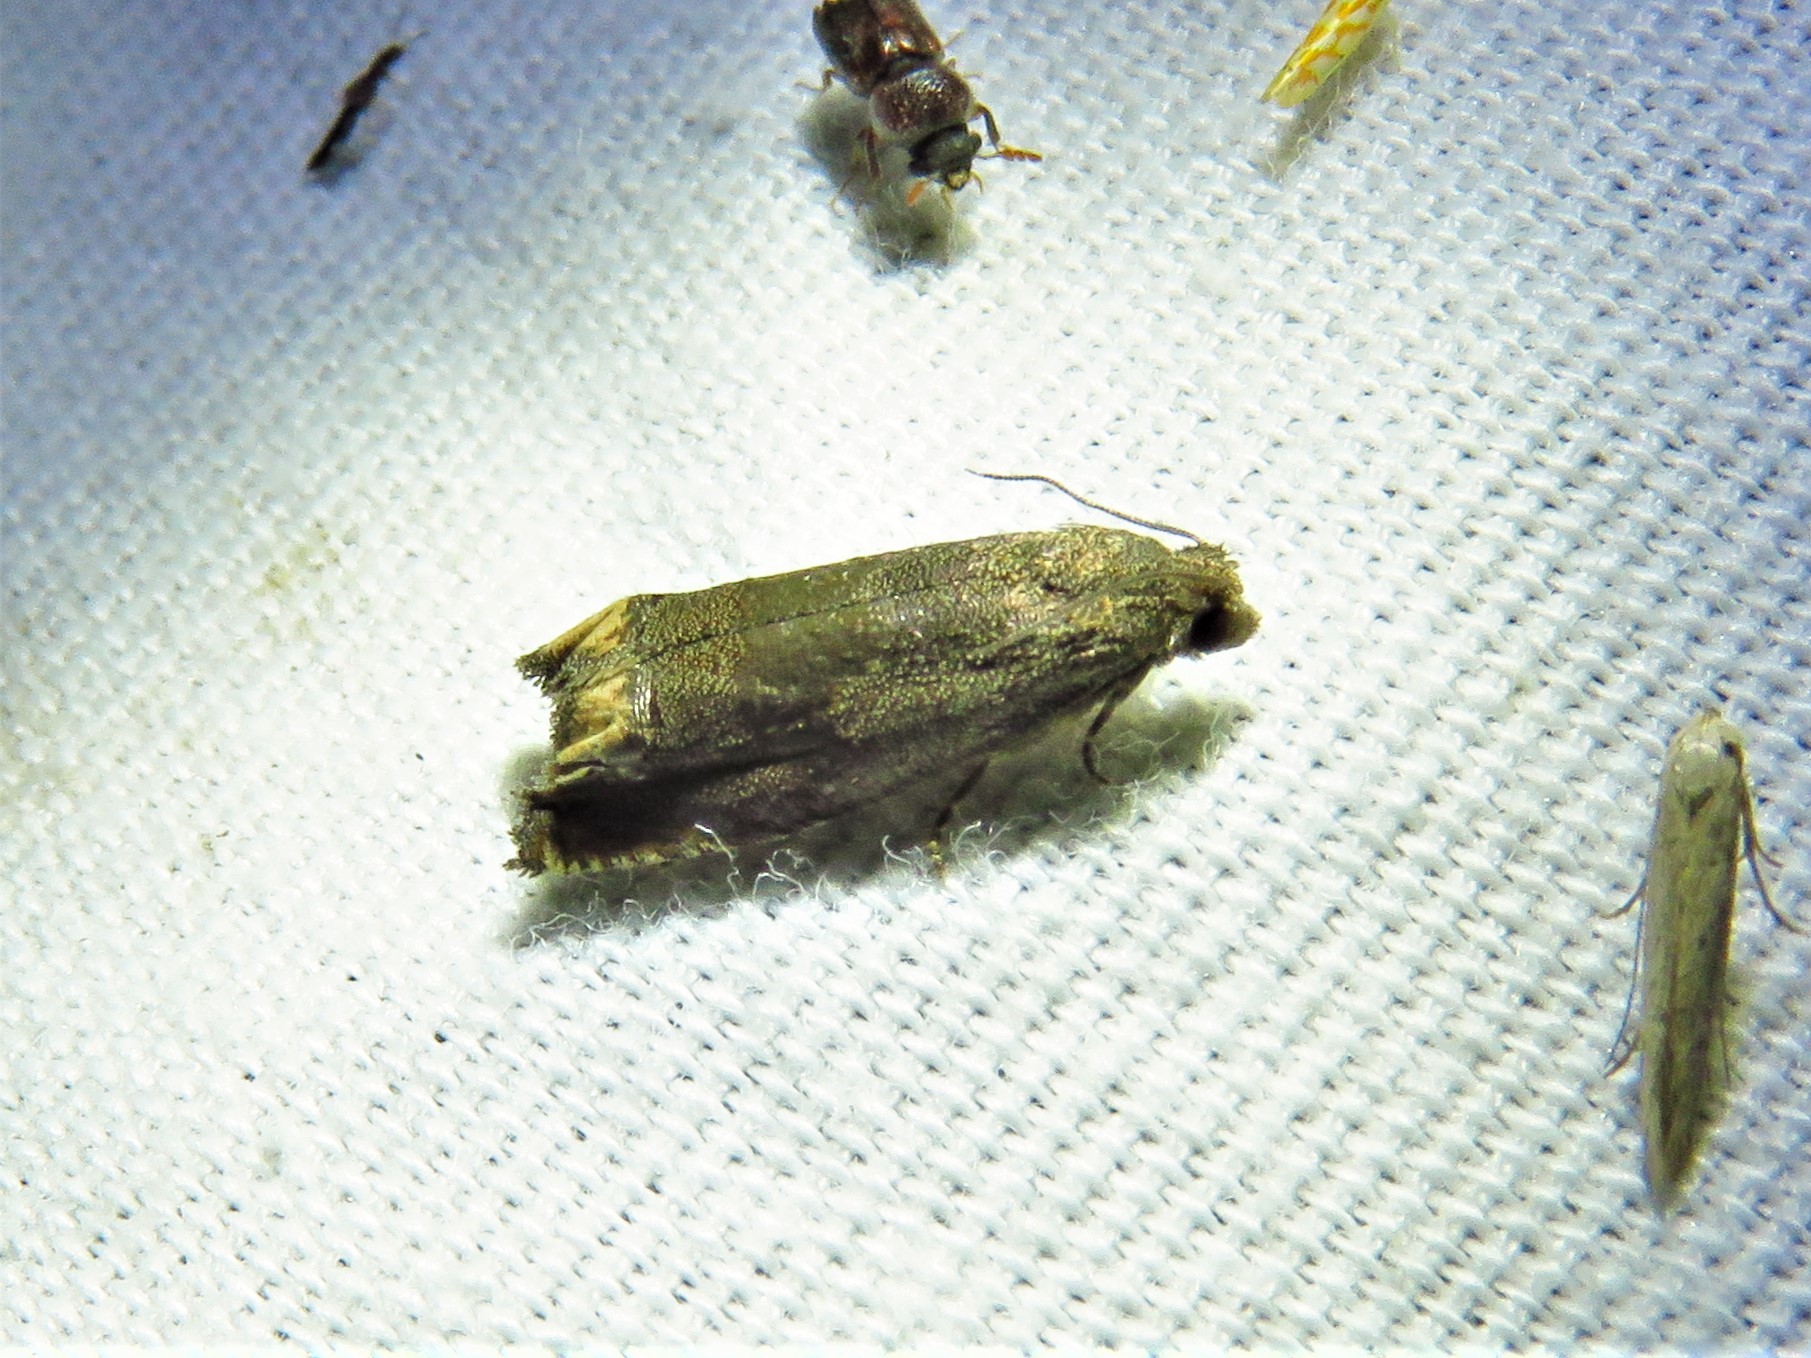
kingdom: Animalia
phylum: Arthropoda
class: Insecta
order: Lepidoptera
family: Tortricidae
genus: Epiblema
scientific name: Epiblema strenuana
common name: Ragweed borer moth
